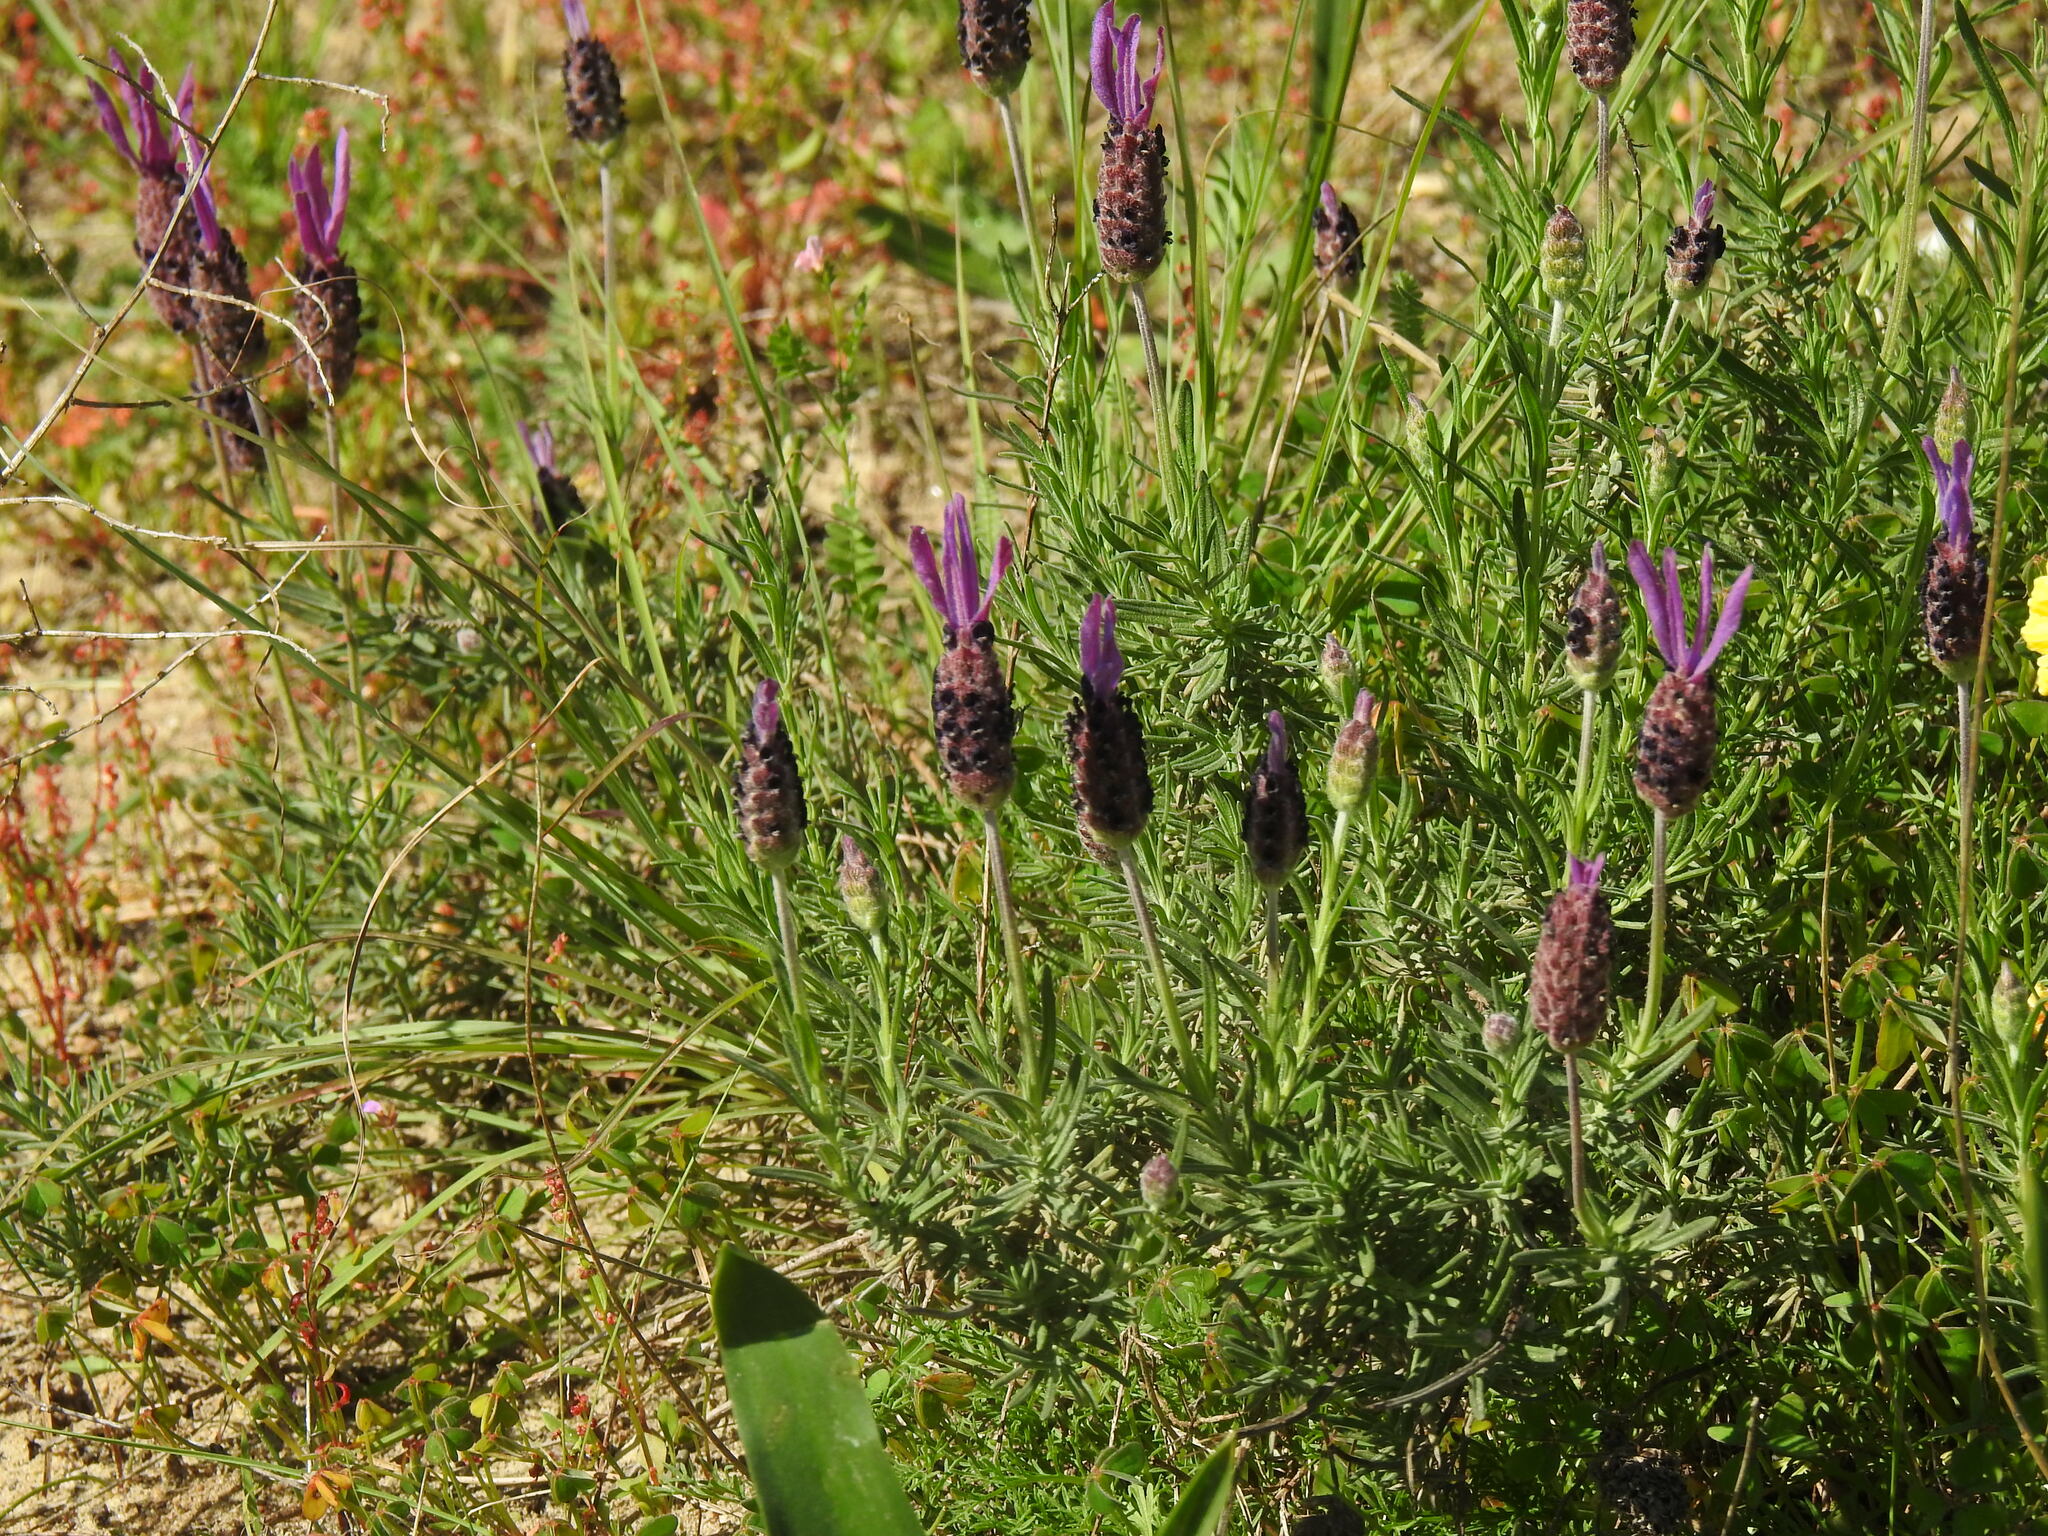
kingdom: Plantae
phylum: Tracheophyta
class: Magnoliopsida
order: Lamiales
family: Lamiaceae
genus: Lavandula
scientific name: Lavandula pedunculata
